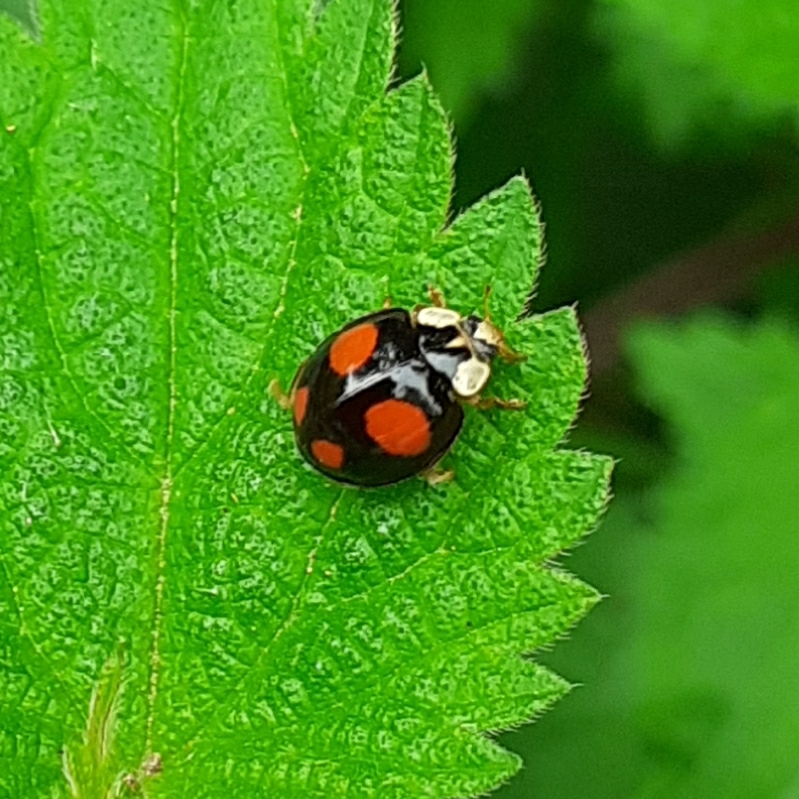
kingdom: Animalia
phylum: Arthropoda
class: Insecta
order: Coleoptera
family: Coccinellidae
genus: Harmonia
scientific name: Harmonia axyridis
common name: Harlequin ladybird
